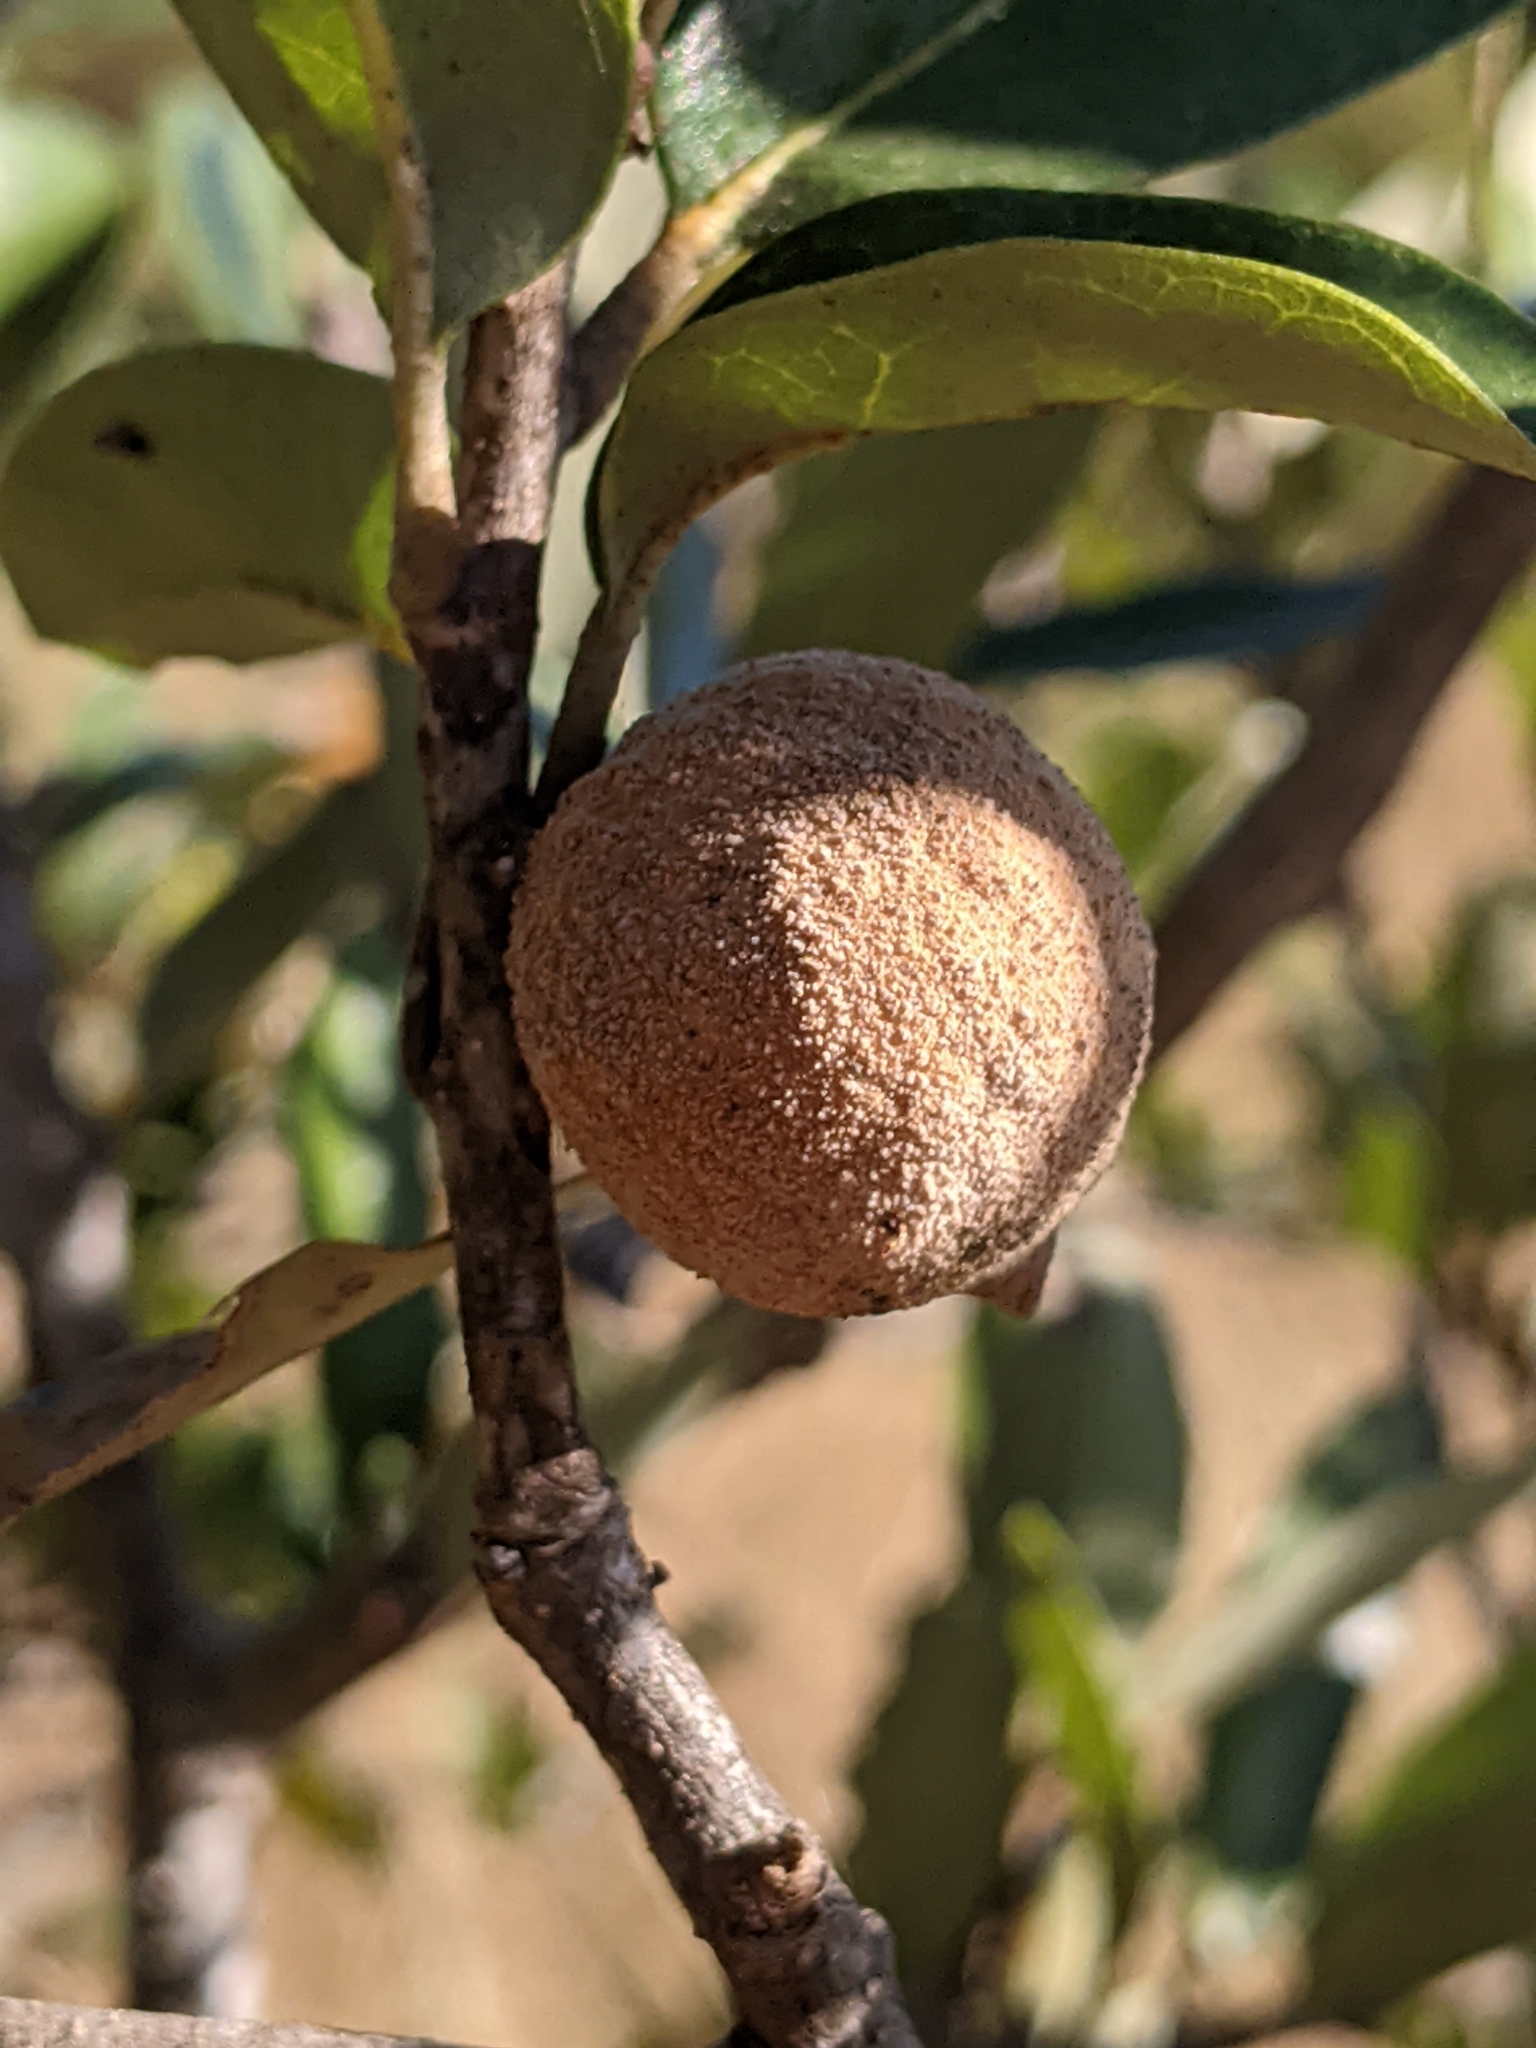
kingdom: Animalia
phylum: Arthropoda
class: Insecta
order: Hymenoptera
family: Cynipidae
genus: Disholcaspis
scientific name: Disholcaspis
